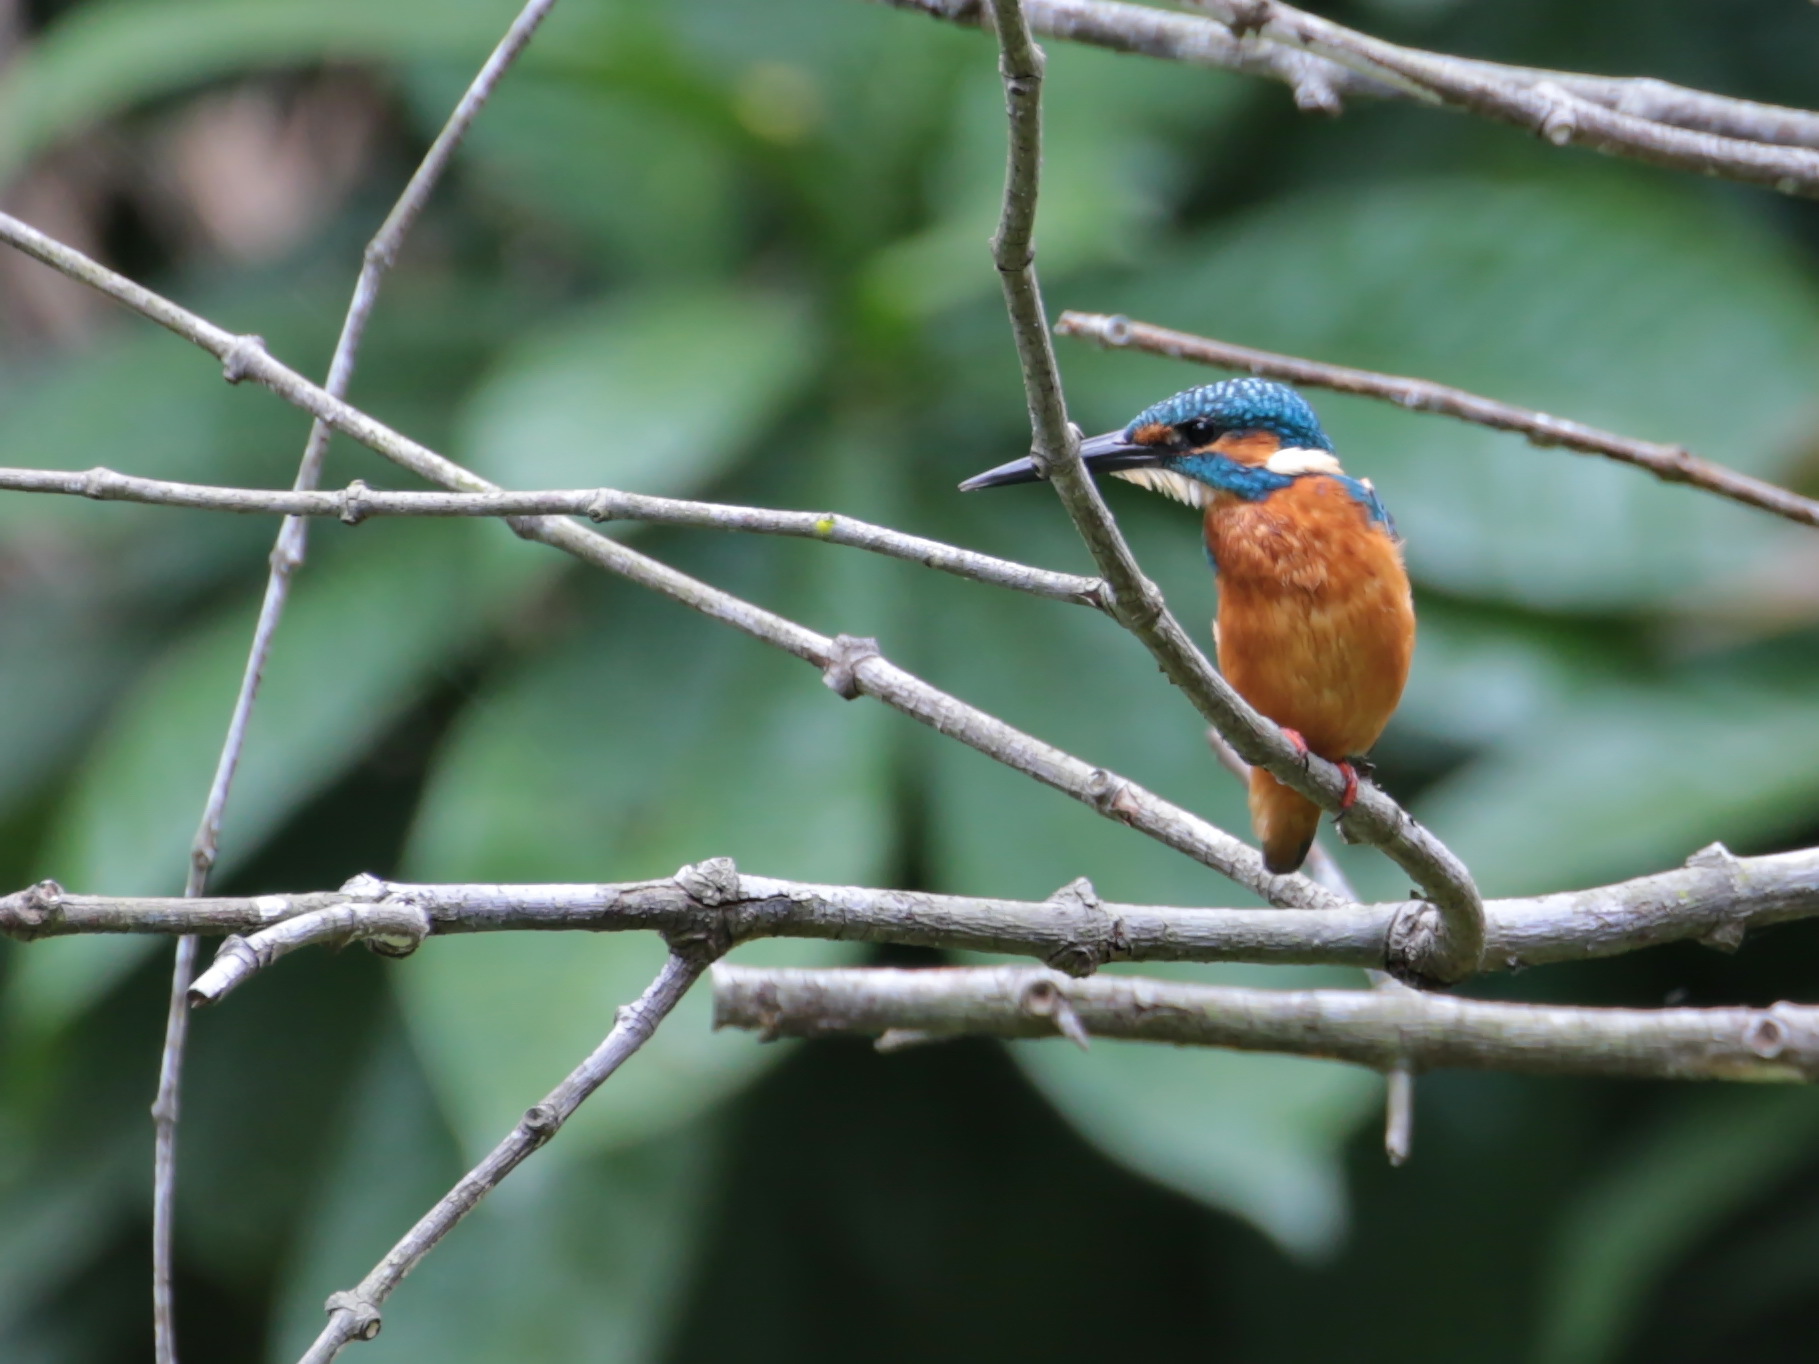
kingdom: Animalia
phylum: Chordata
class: Aves
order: Coraciiformes
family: Alcedinidae
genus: Alcedo
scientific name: Alcedo atthis
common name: Common kingfisher
